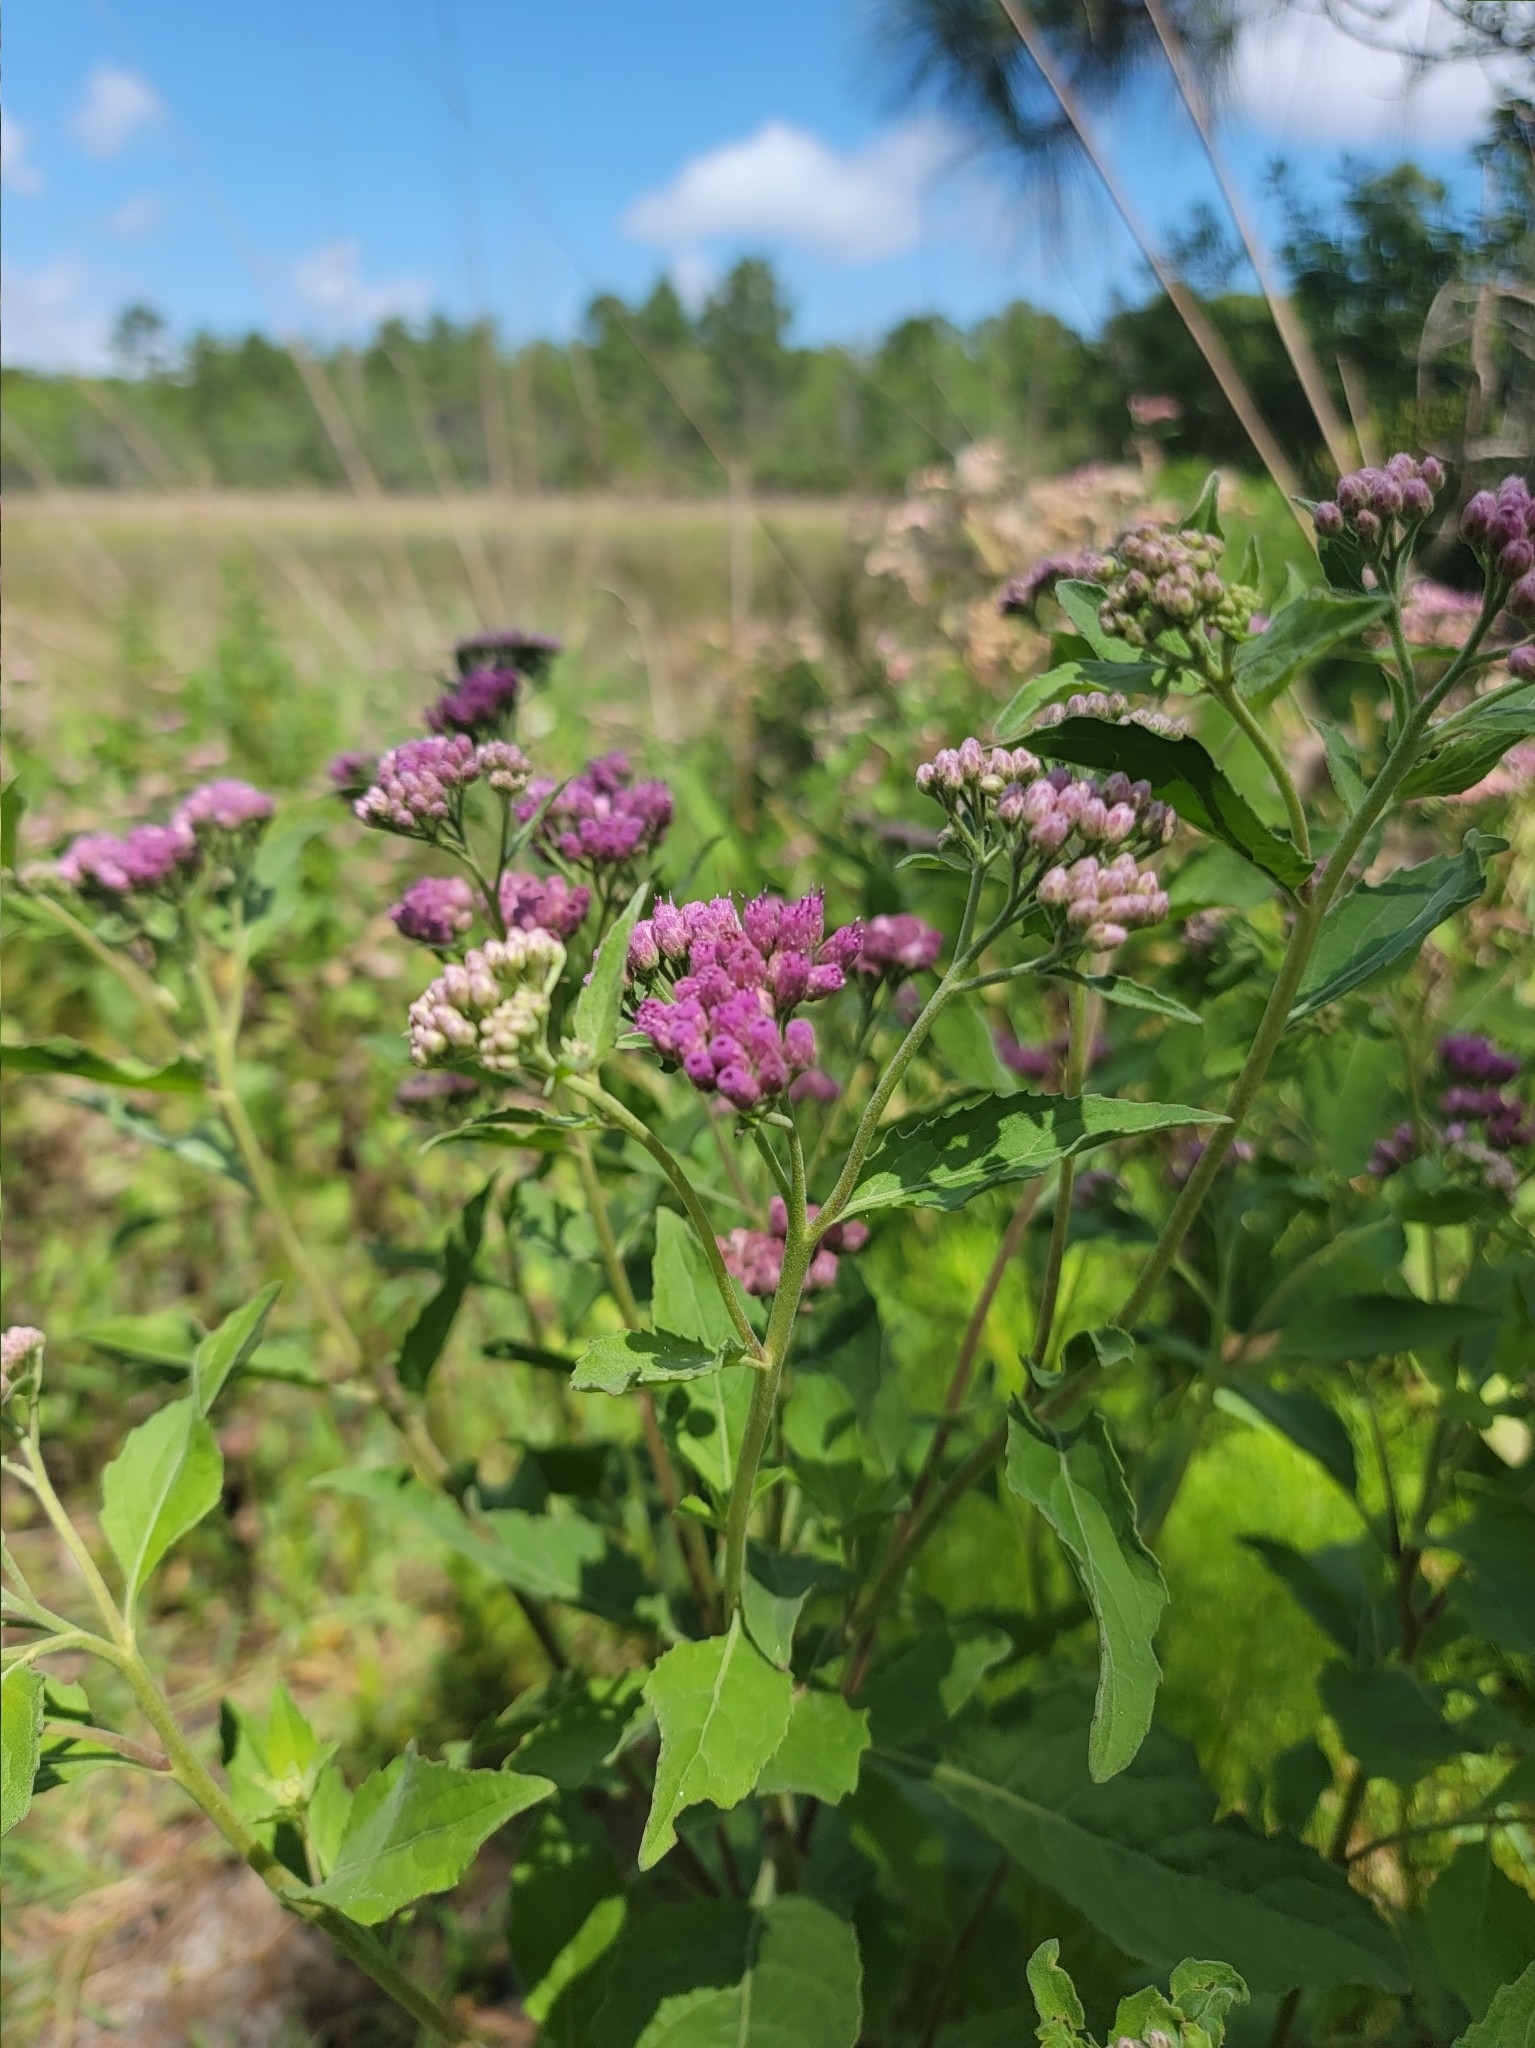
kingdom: Plantae
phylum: Tracheophyta
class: Magnoliopsida
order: Asterales
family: Asteraceae
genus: Pluchea
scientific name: Pluchea odorata
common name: Saltmarsh fleabane
